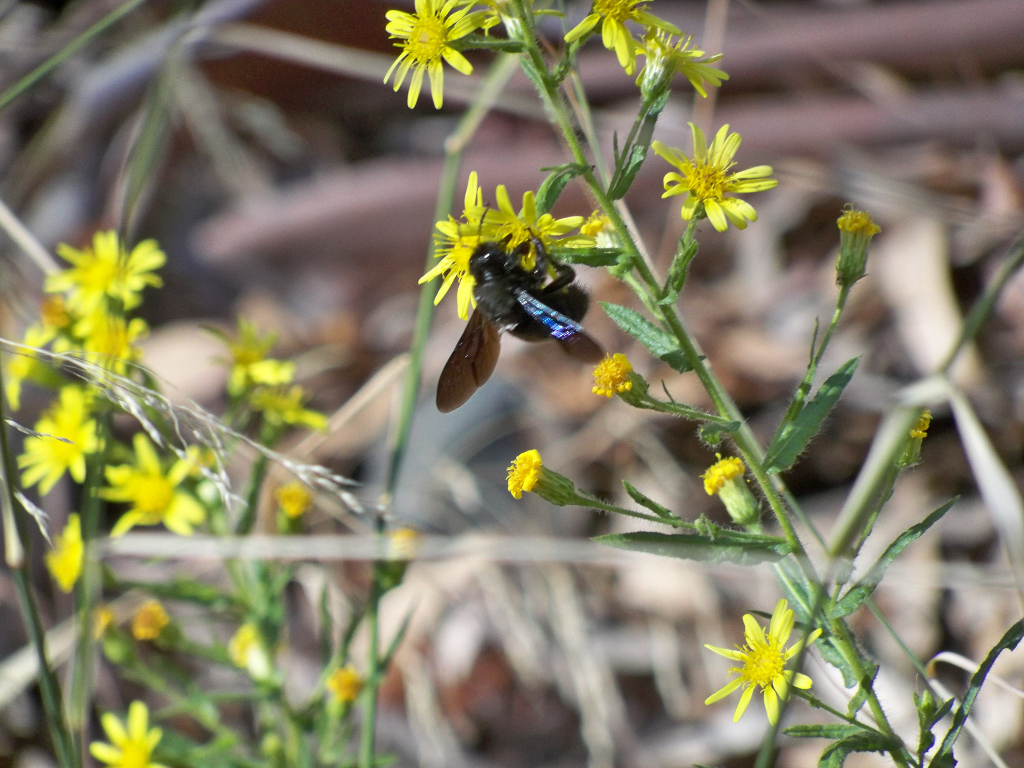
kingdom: Animalia
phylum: Arthropoda
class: Insecta
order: Hymenoptera
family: Apidae
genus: Xylocopa
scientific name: Xylocopa violacea
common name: Violet carpenter bee
